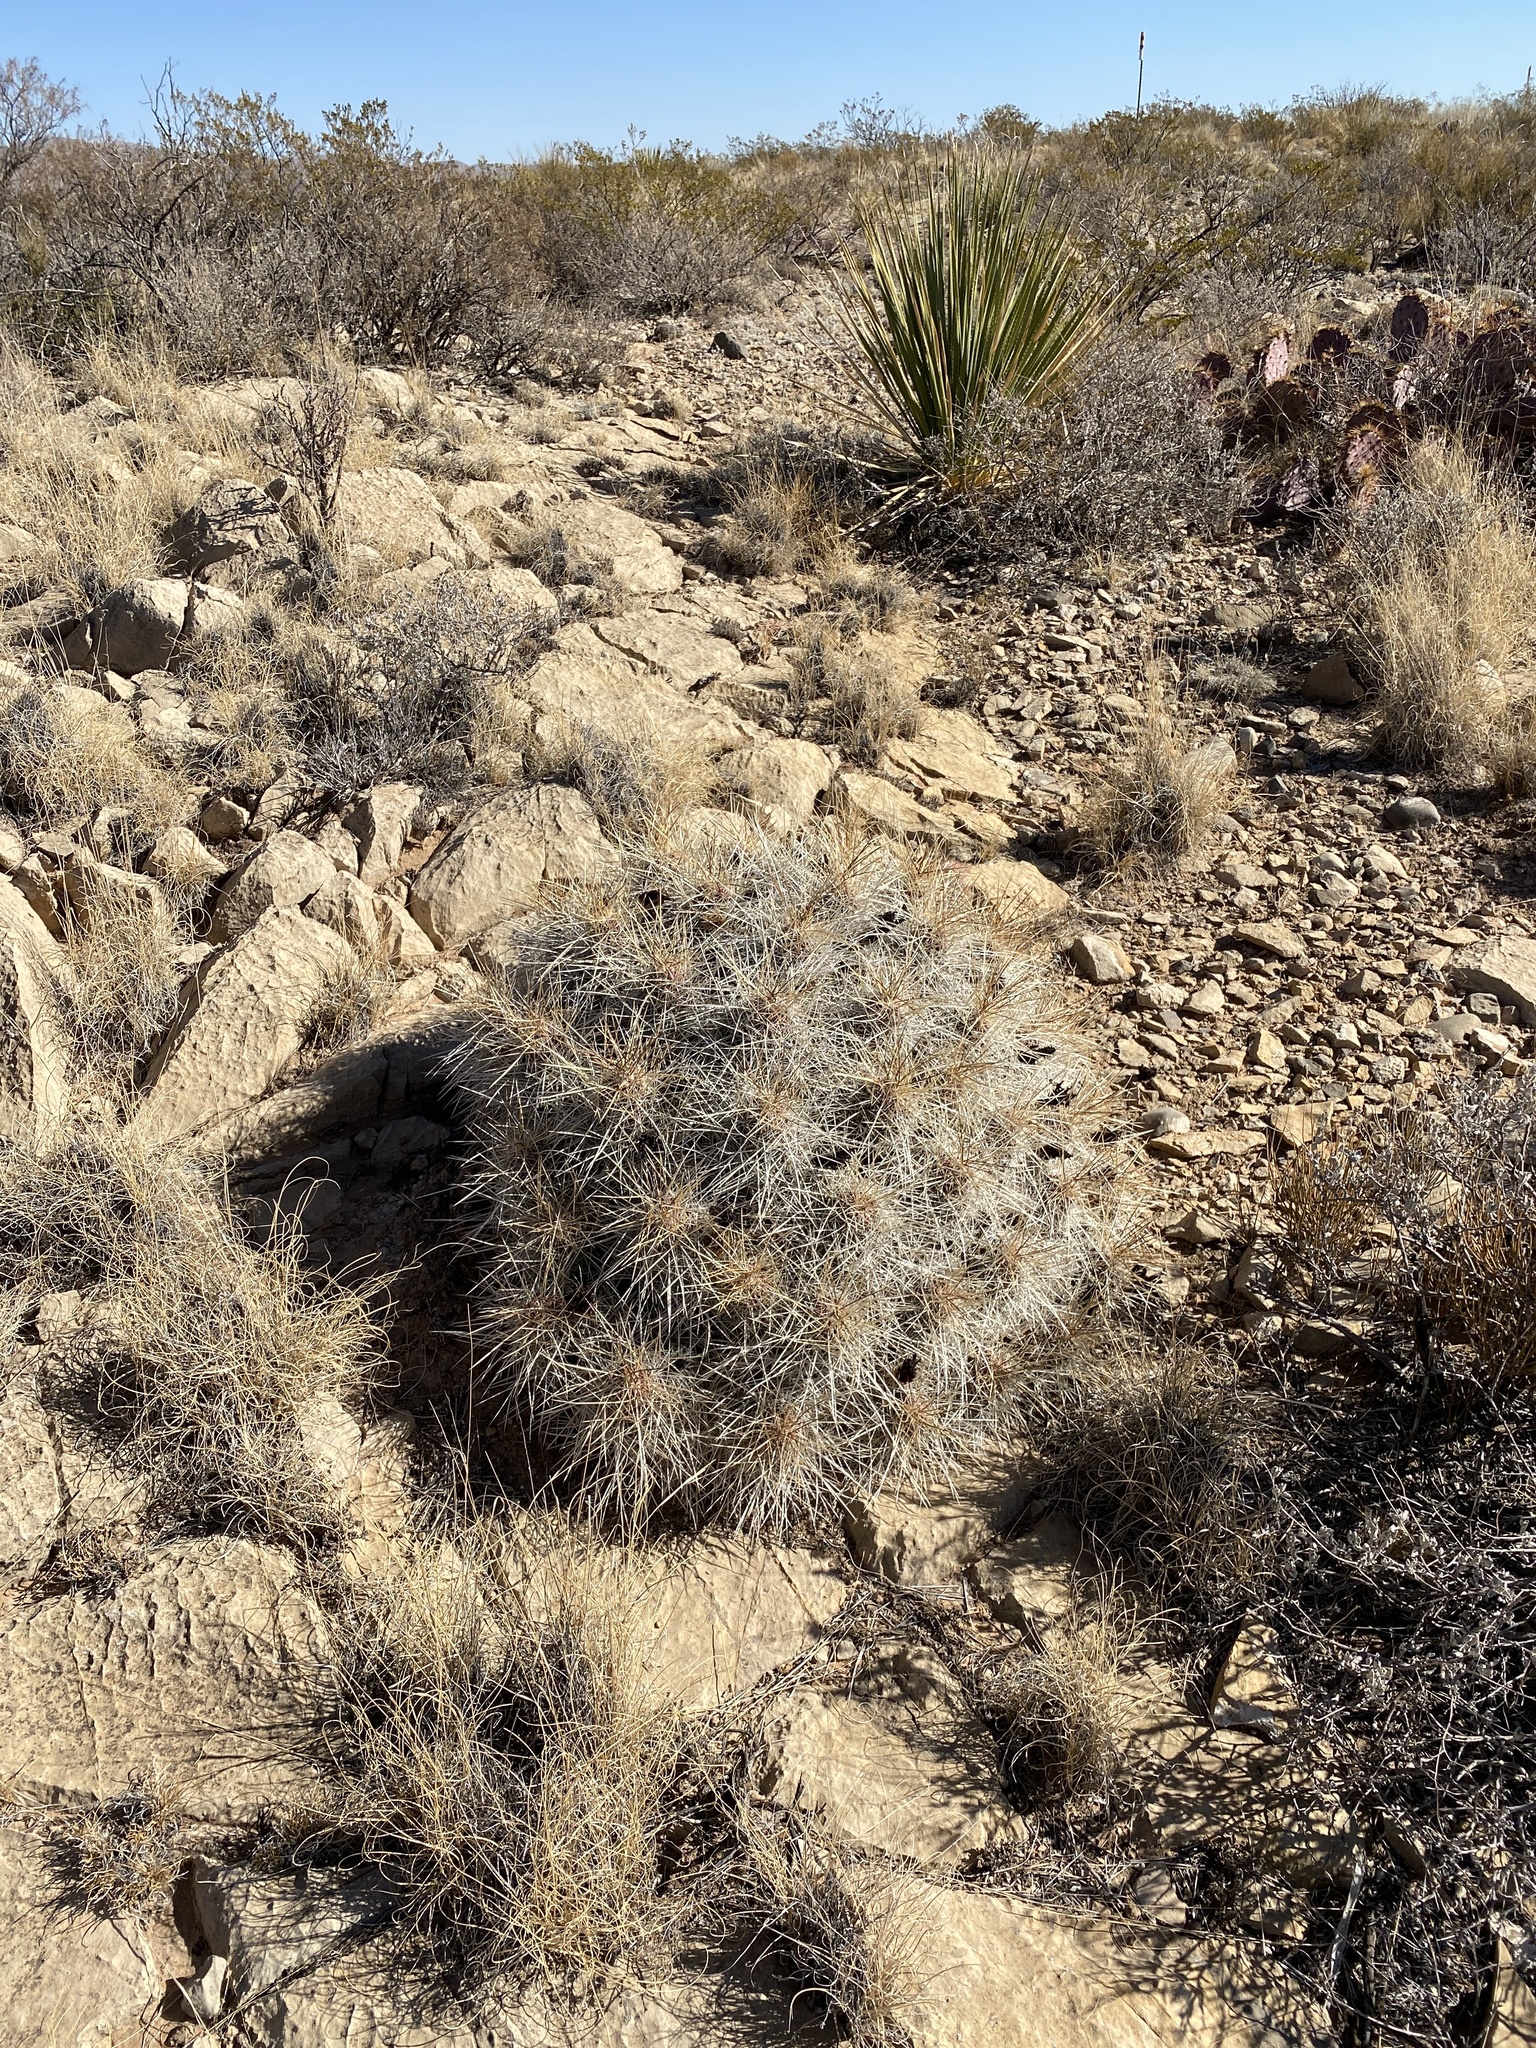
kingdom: Plantae
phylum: Tracheophyta
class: Magnoliopsida
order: Caryophyllales
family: Cactaceae
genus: Echinocereus
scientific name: Echinocereus stramineus
